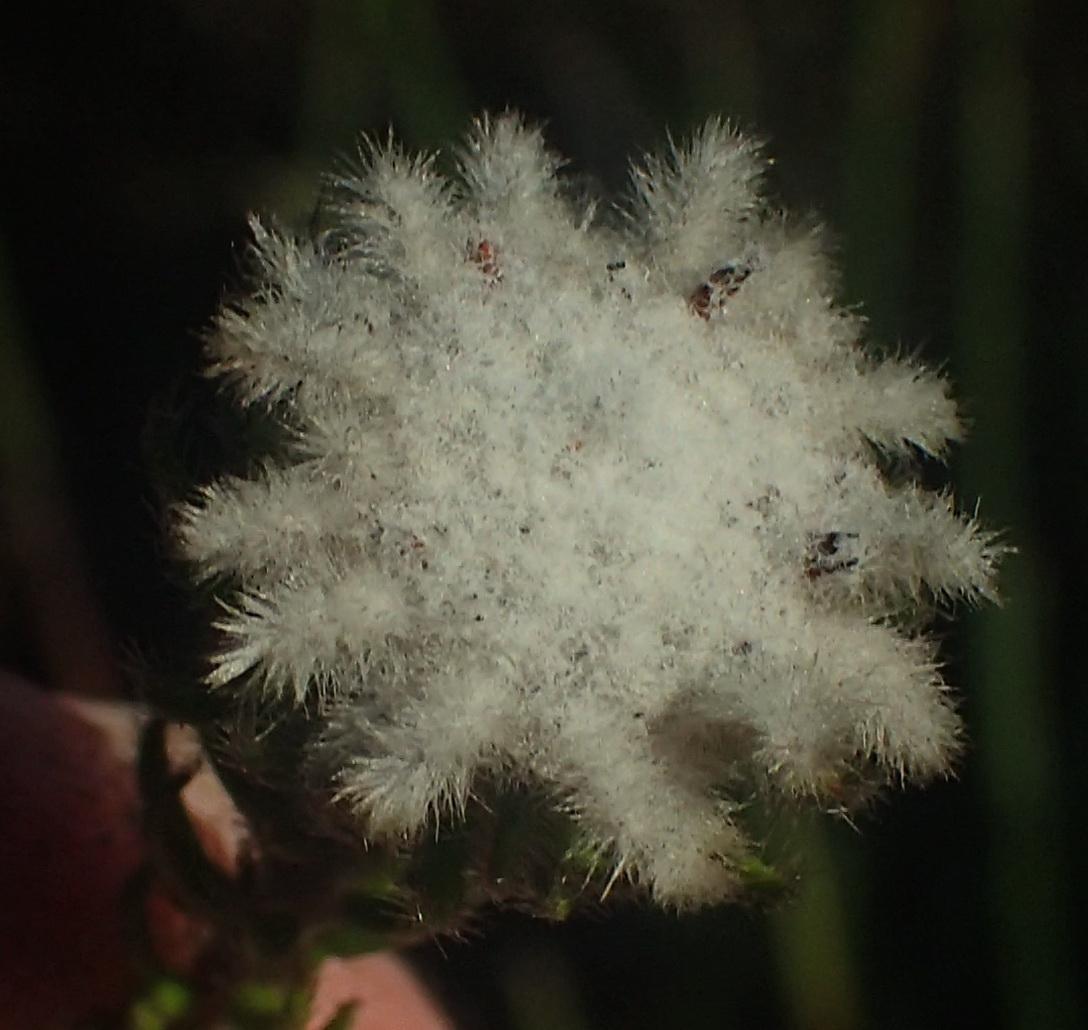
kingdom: Plantae
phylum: Tracheophyta
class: Magnoliopsida
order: Rosales
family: Rhamnaceae
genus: Phylica
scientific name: Phylica curvifolia
